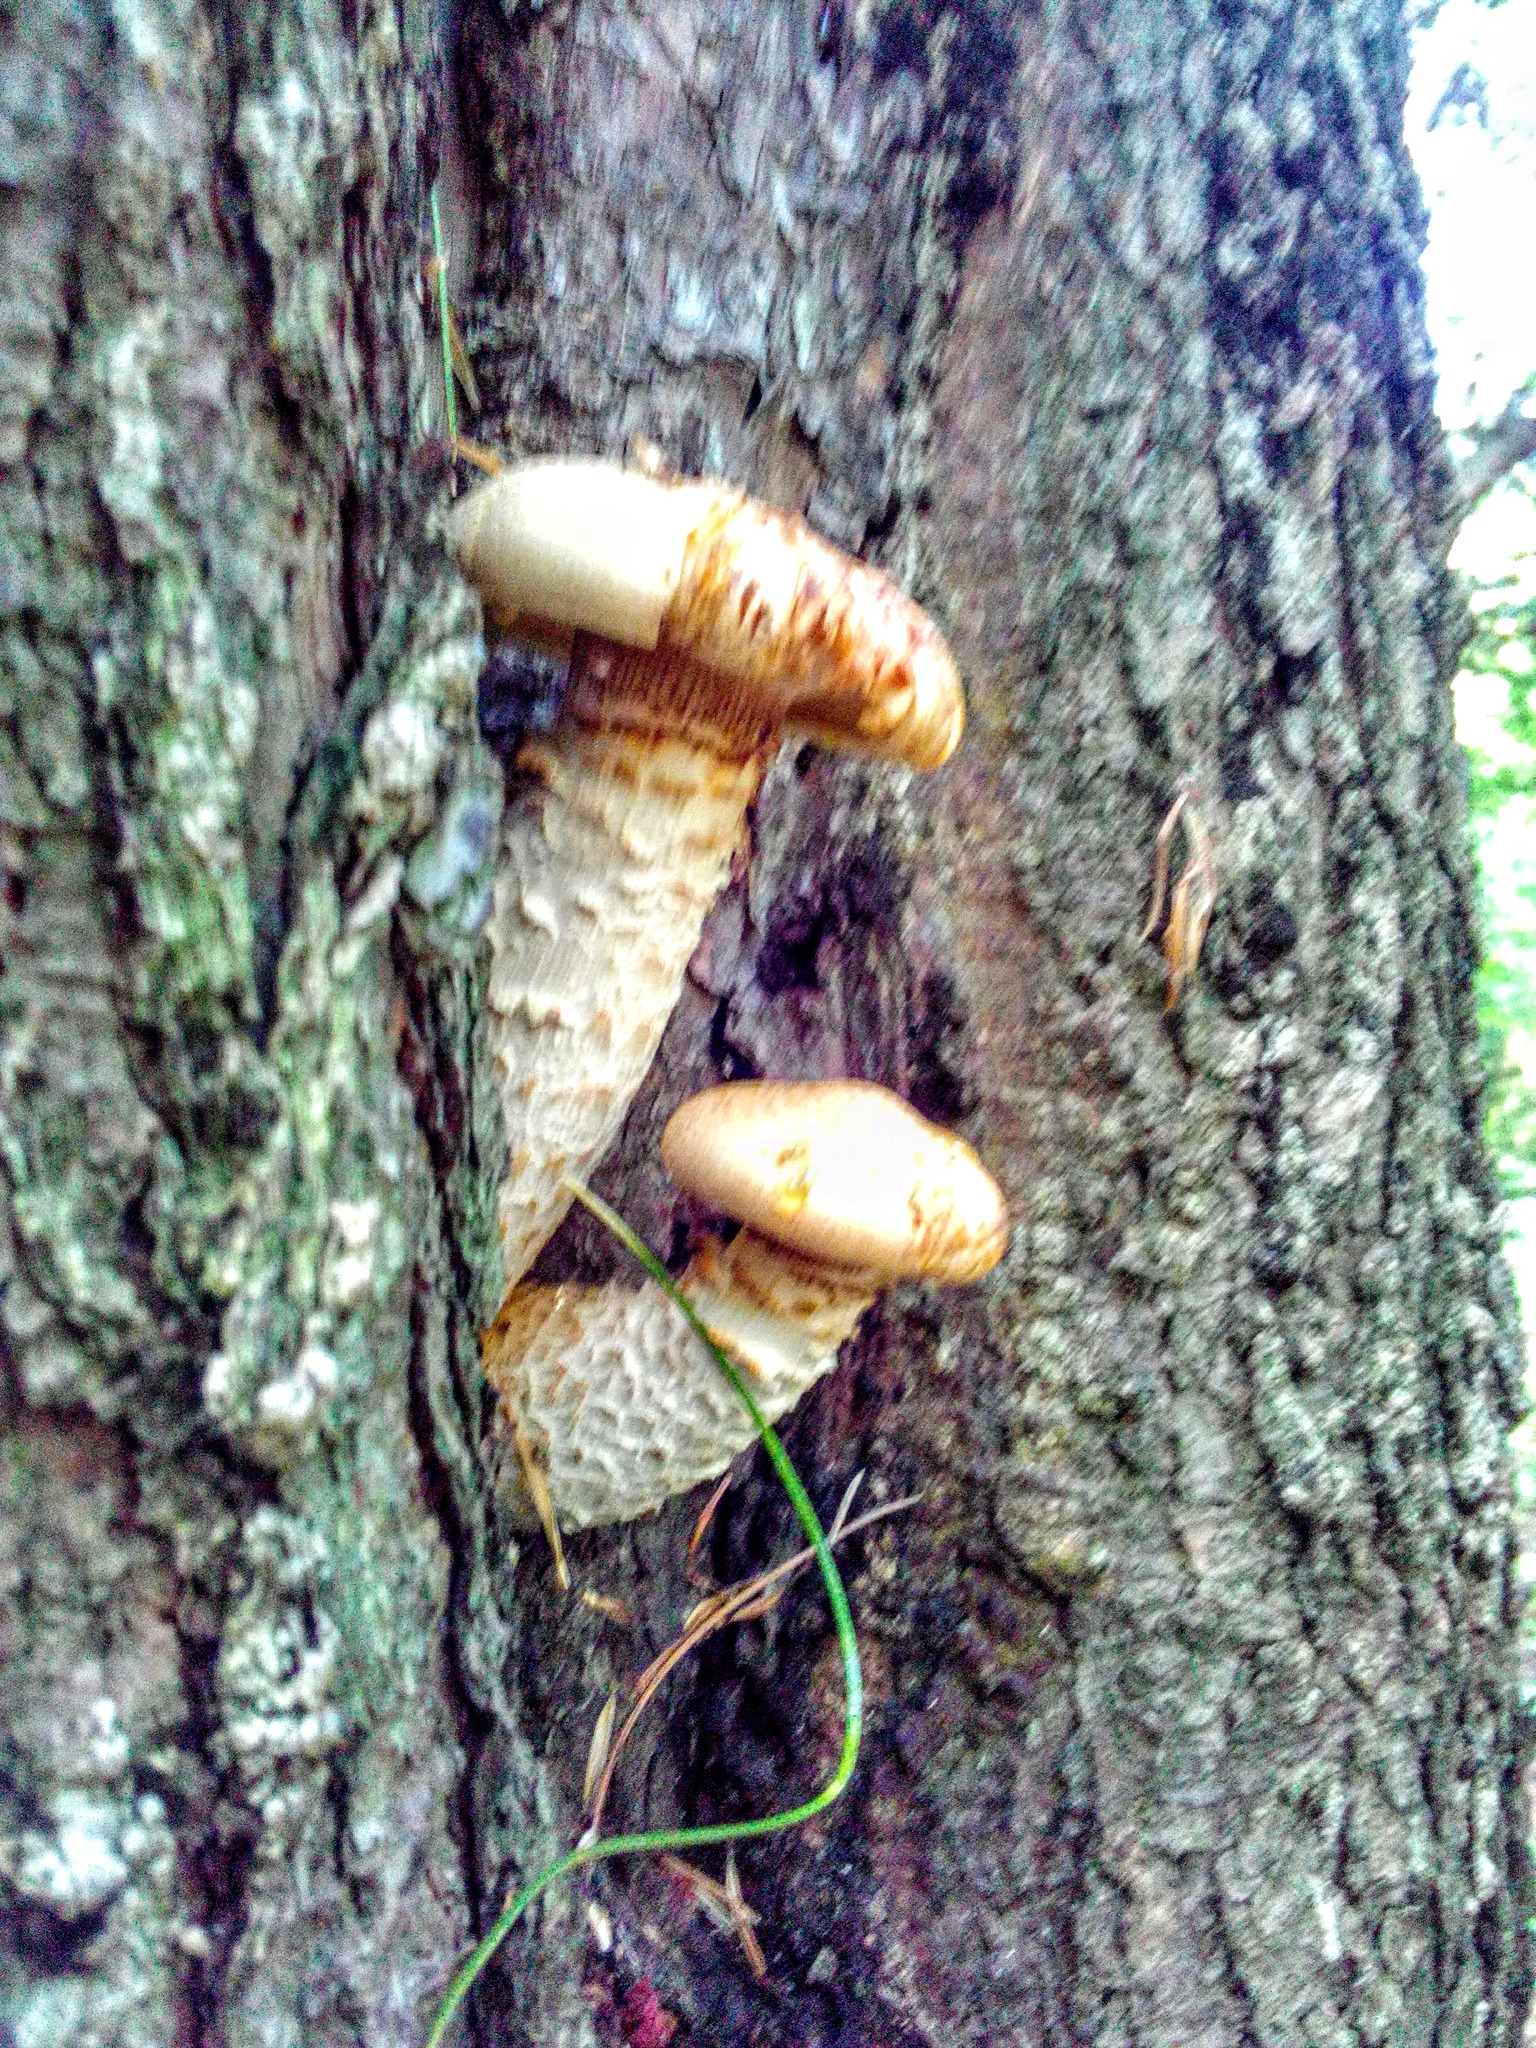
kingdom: Fungi
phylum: Basidiomycota
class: Agaricomycetes
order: Gloeophyllales
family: Gloeophyllaceae
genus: Neolentinus
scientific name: Neolentinus lepideus
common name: Scaly sawgill
